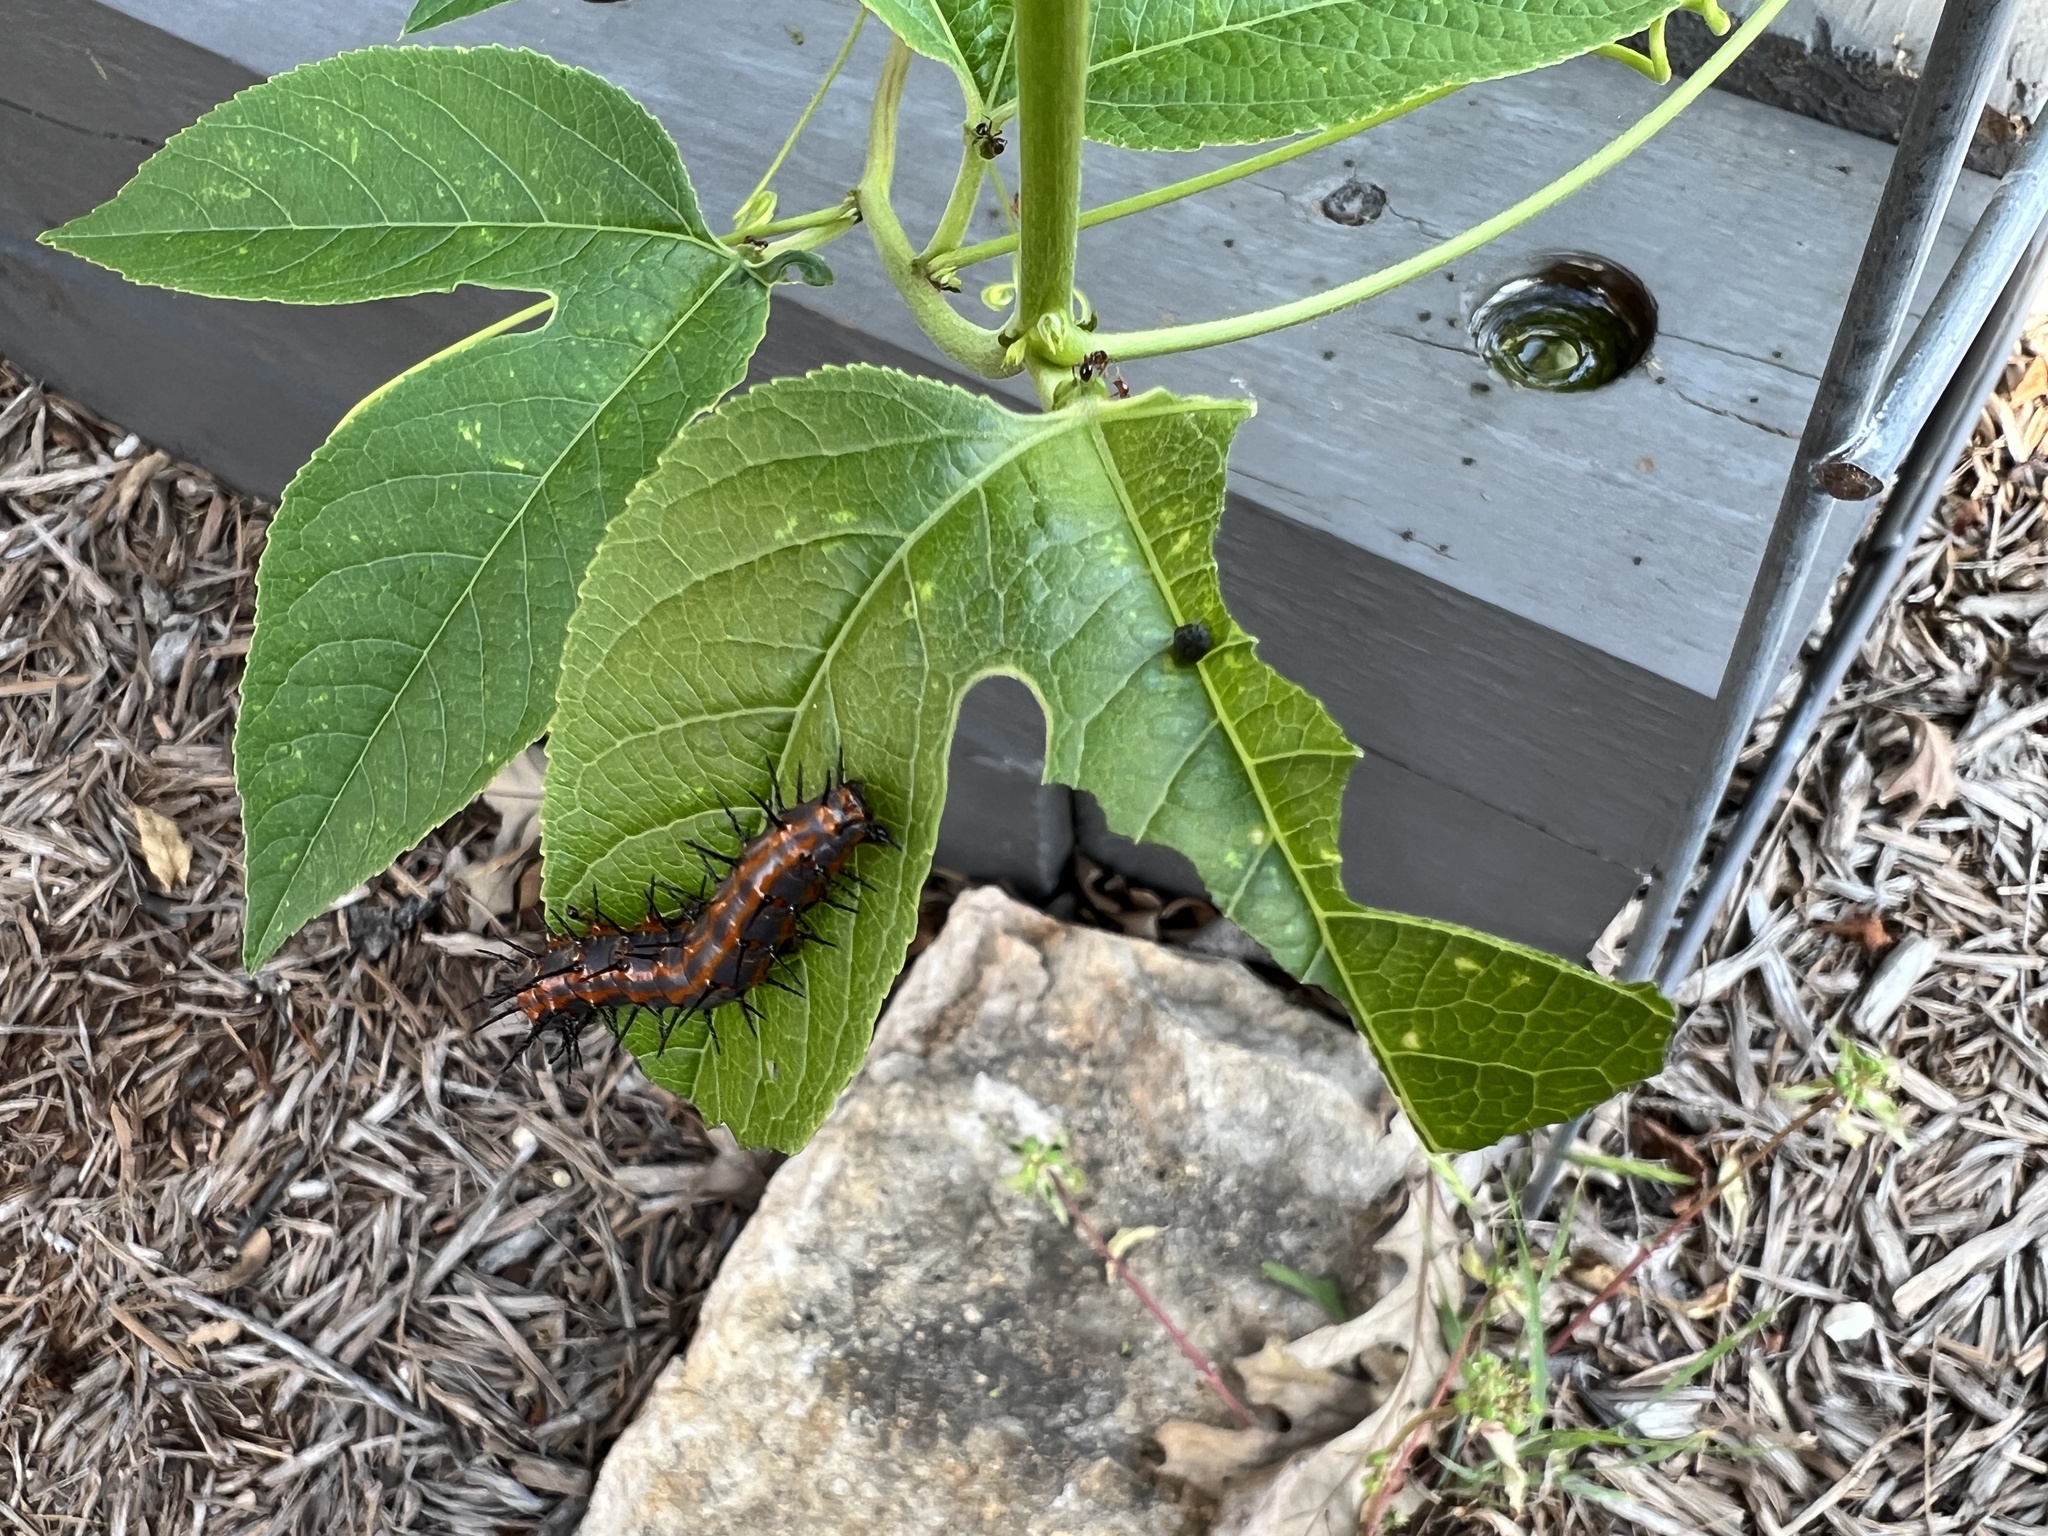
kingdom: Animalia
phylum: Arthropoda
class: Insecta
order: Lepidoptera
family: Nymphalidae
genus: Dione
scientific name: Dione vanillae
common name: Gulf fritillary
